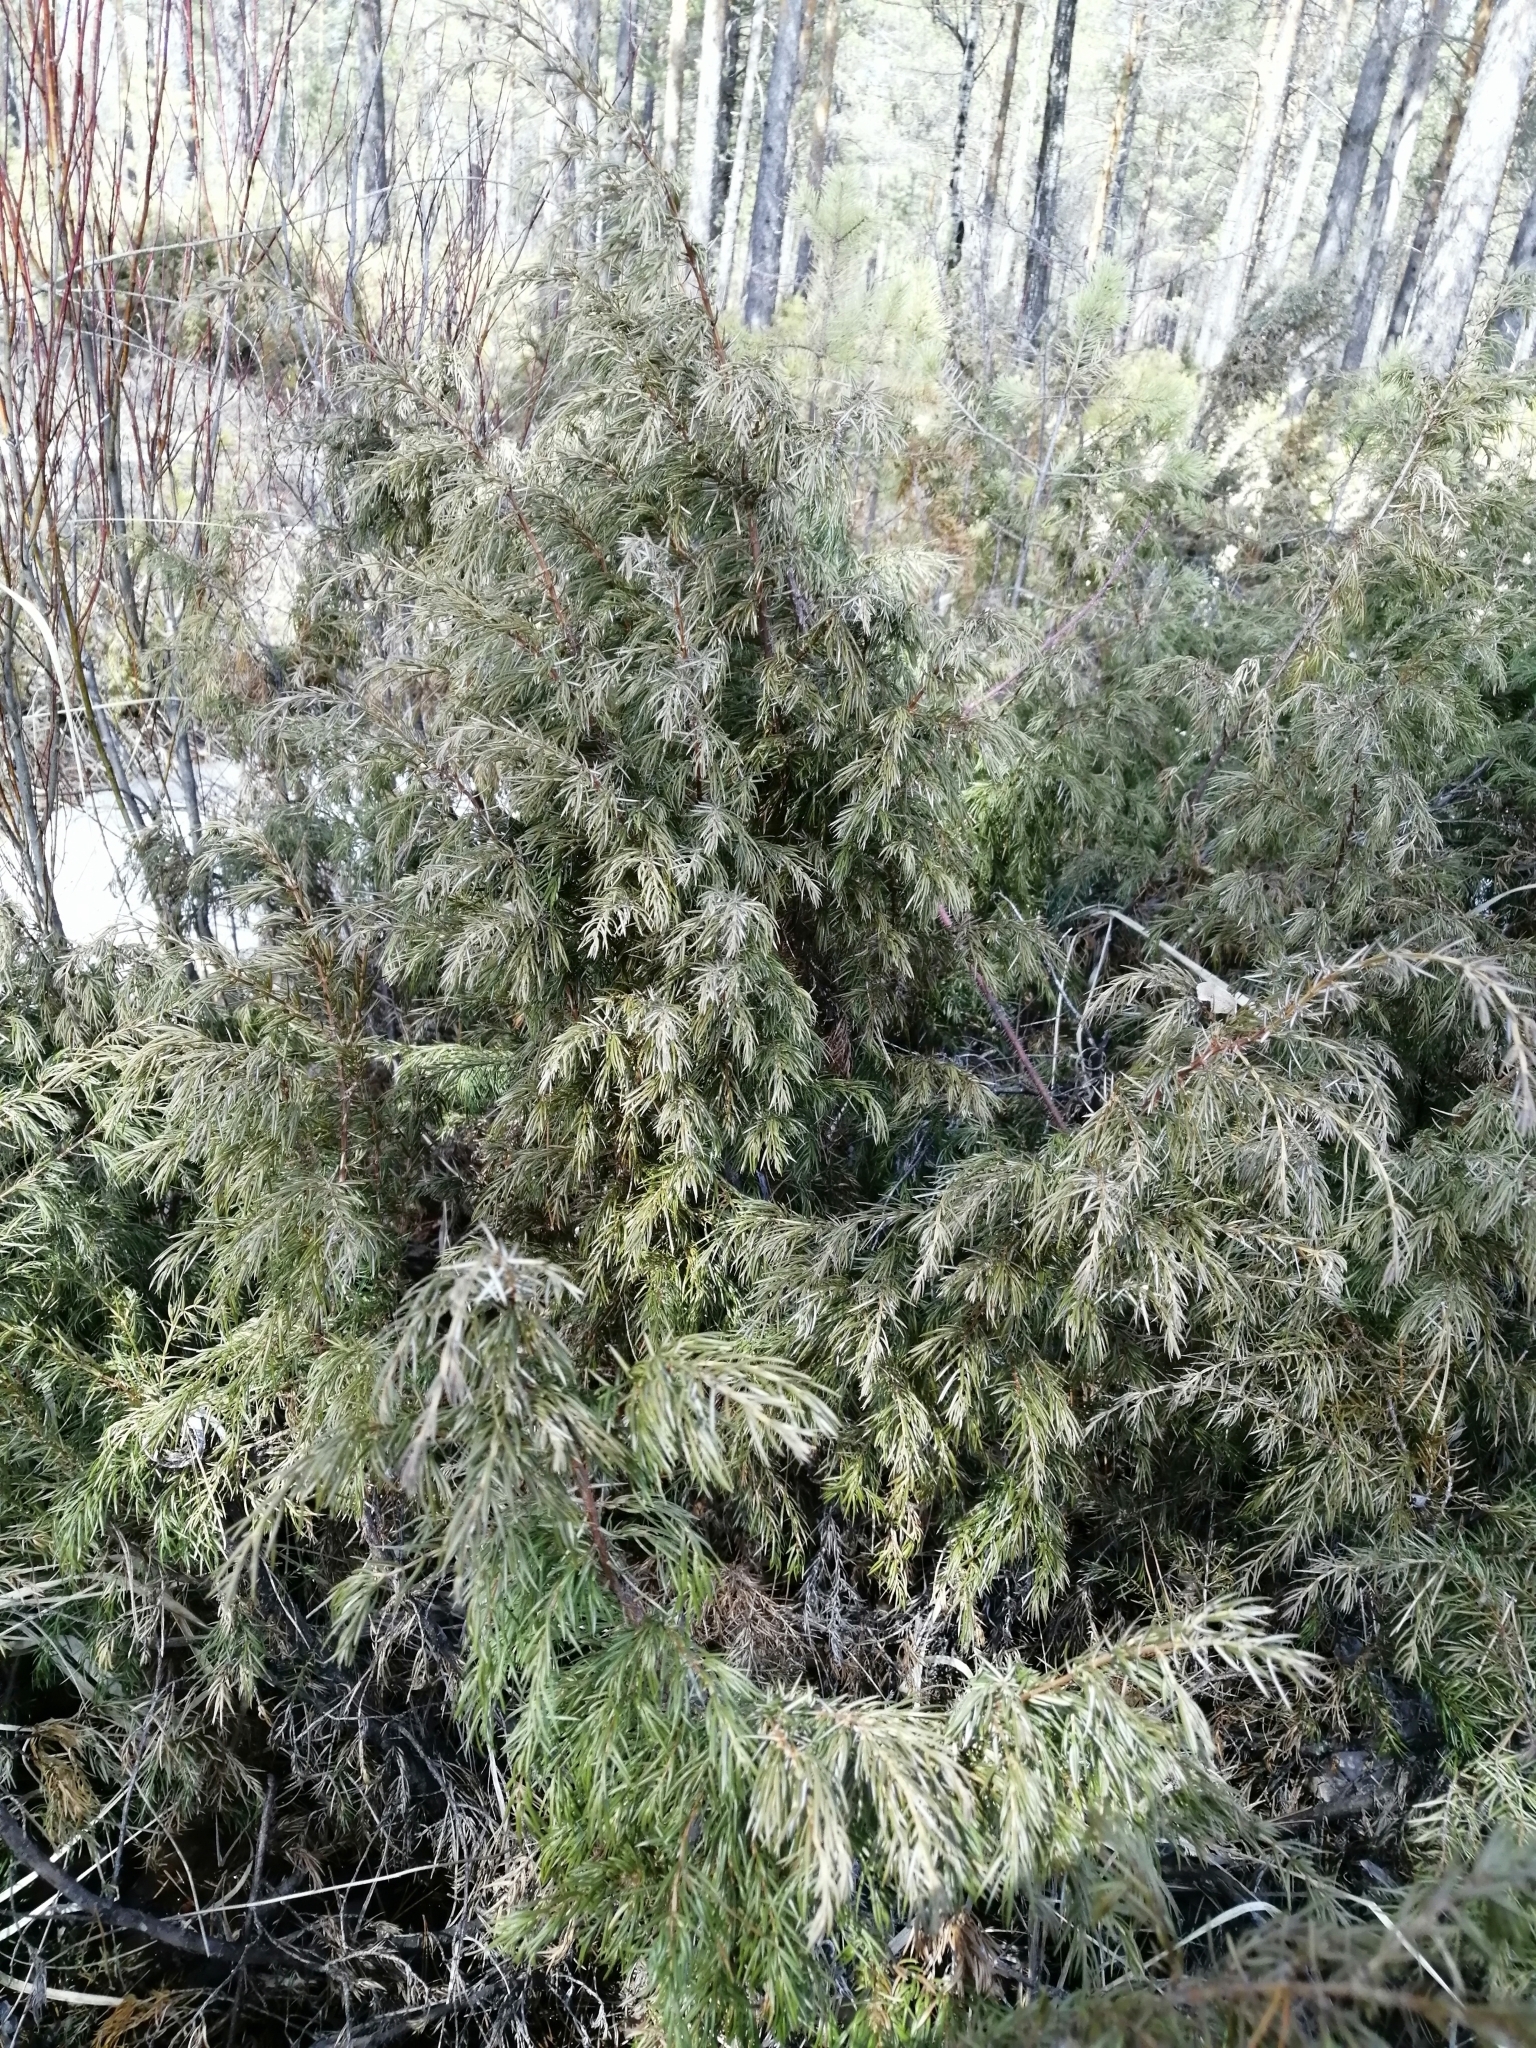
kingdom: Plantae
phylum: Tracheophyta
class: Pinopsida
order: Pinales
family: Cupressaceae
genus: Juniperus
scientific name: Juniperus communis
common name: Common juniper
